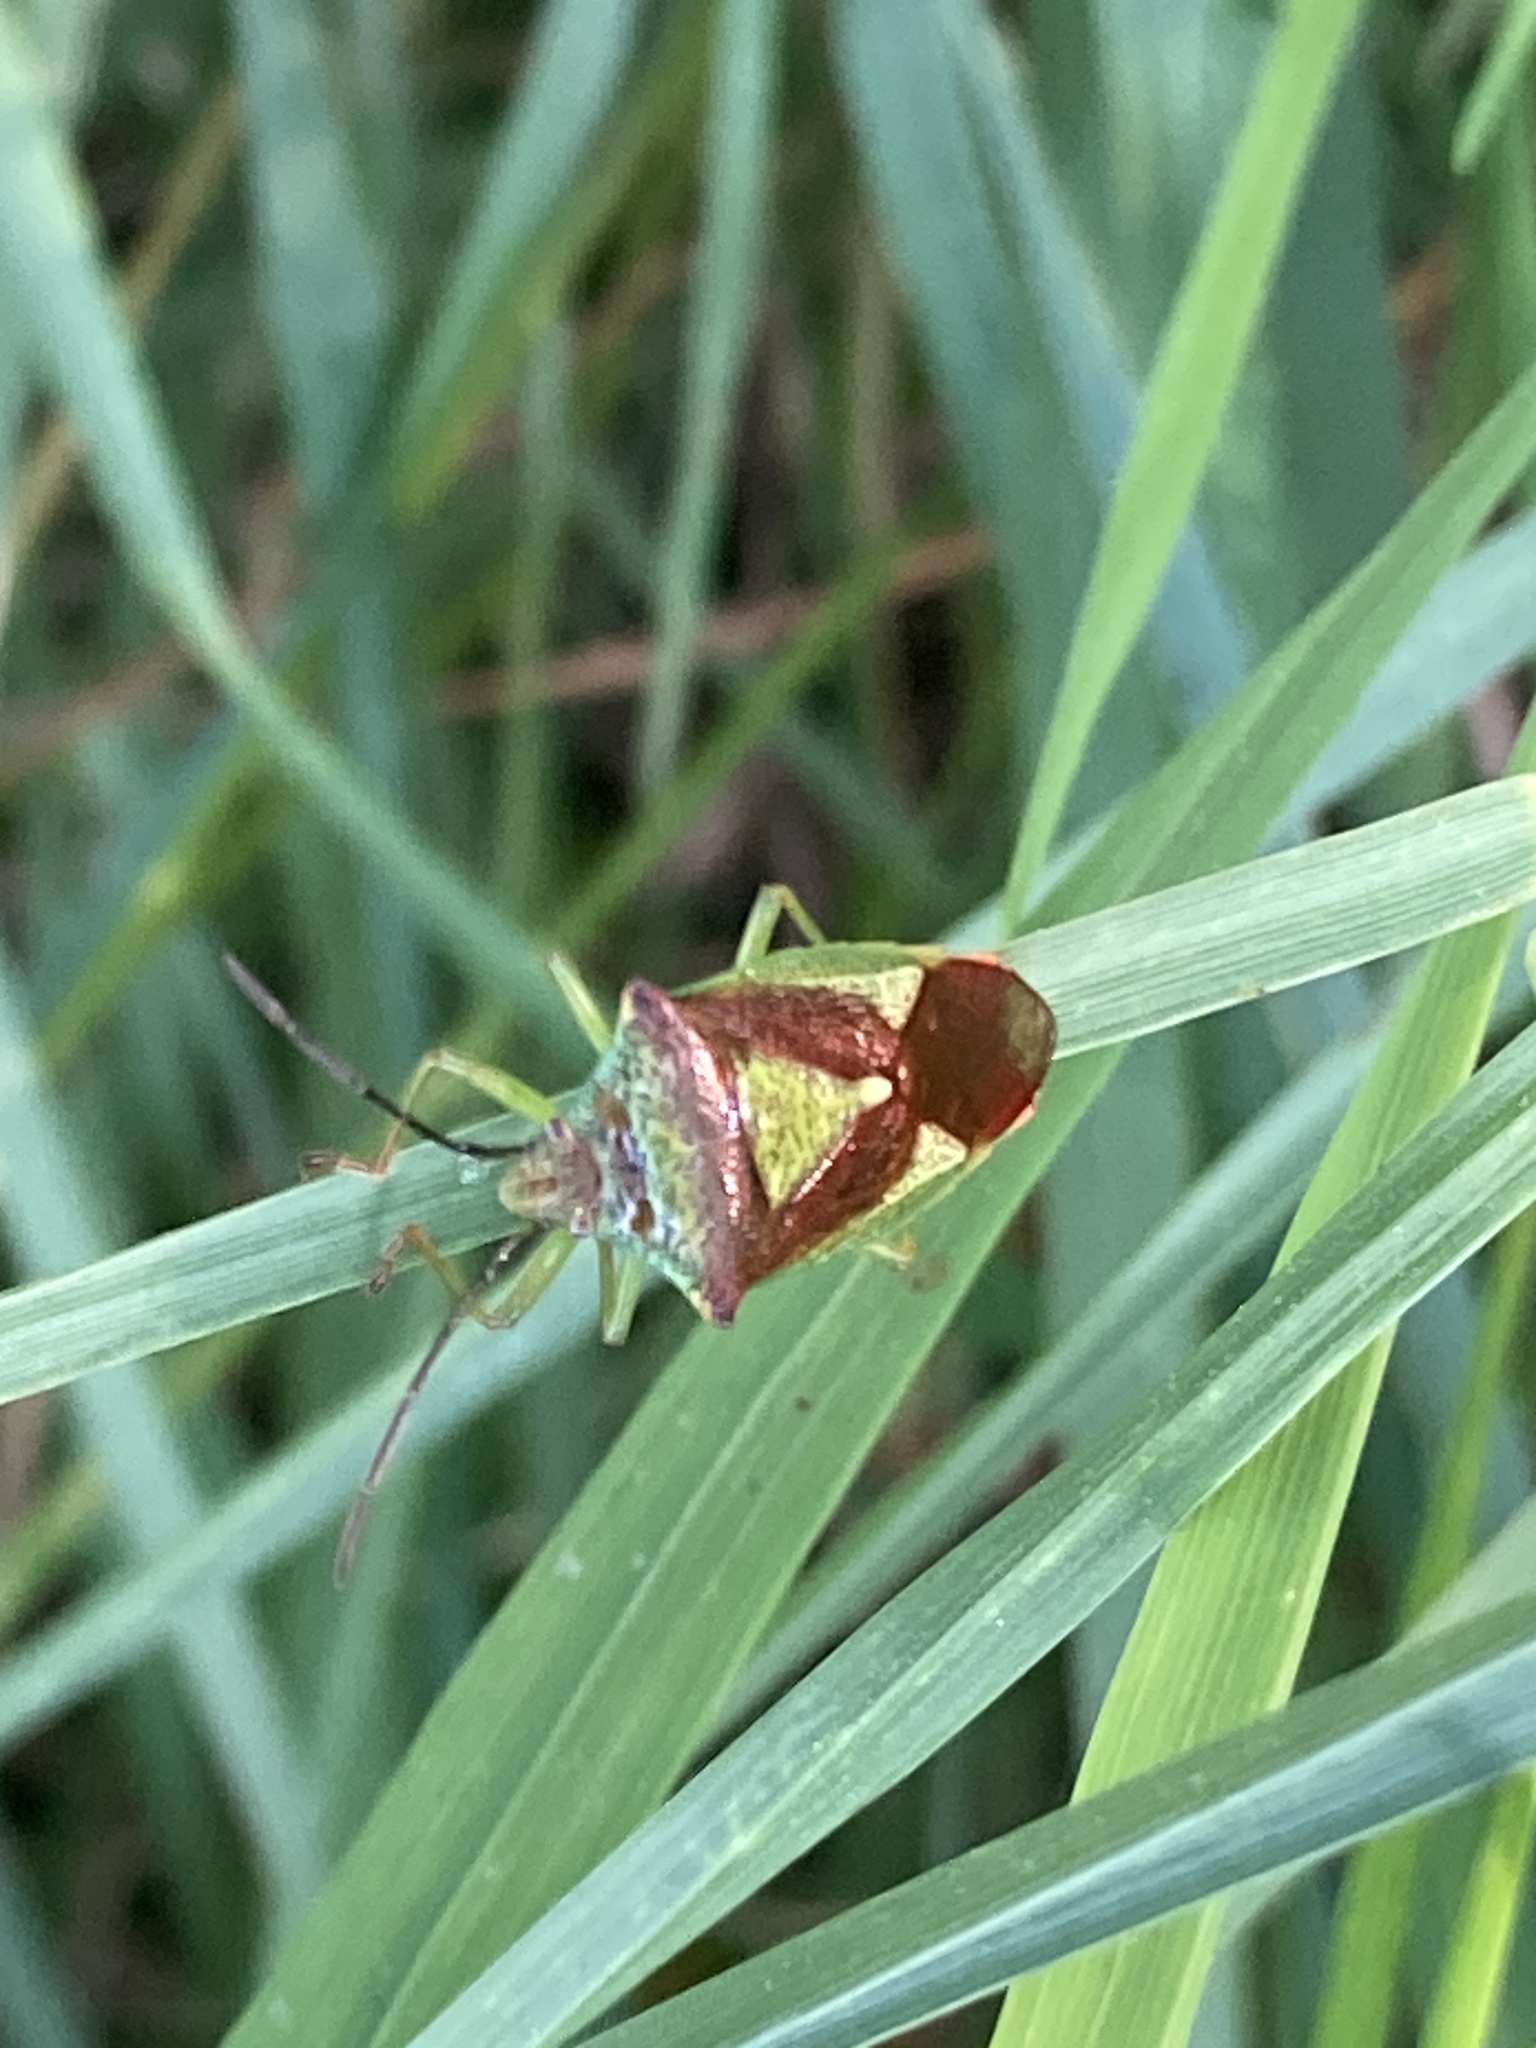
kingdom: Animalia
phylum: Arthropoda
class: Insecta
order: Hemiptera
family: Acanthosomatidae
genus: Acanthosoma
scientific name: Acanthosoma haemorrhoidale
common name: Hawthorn shieldbug
